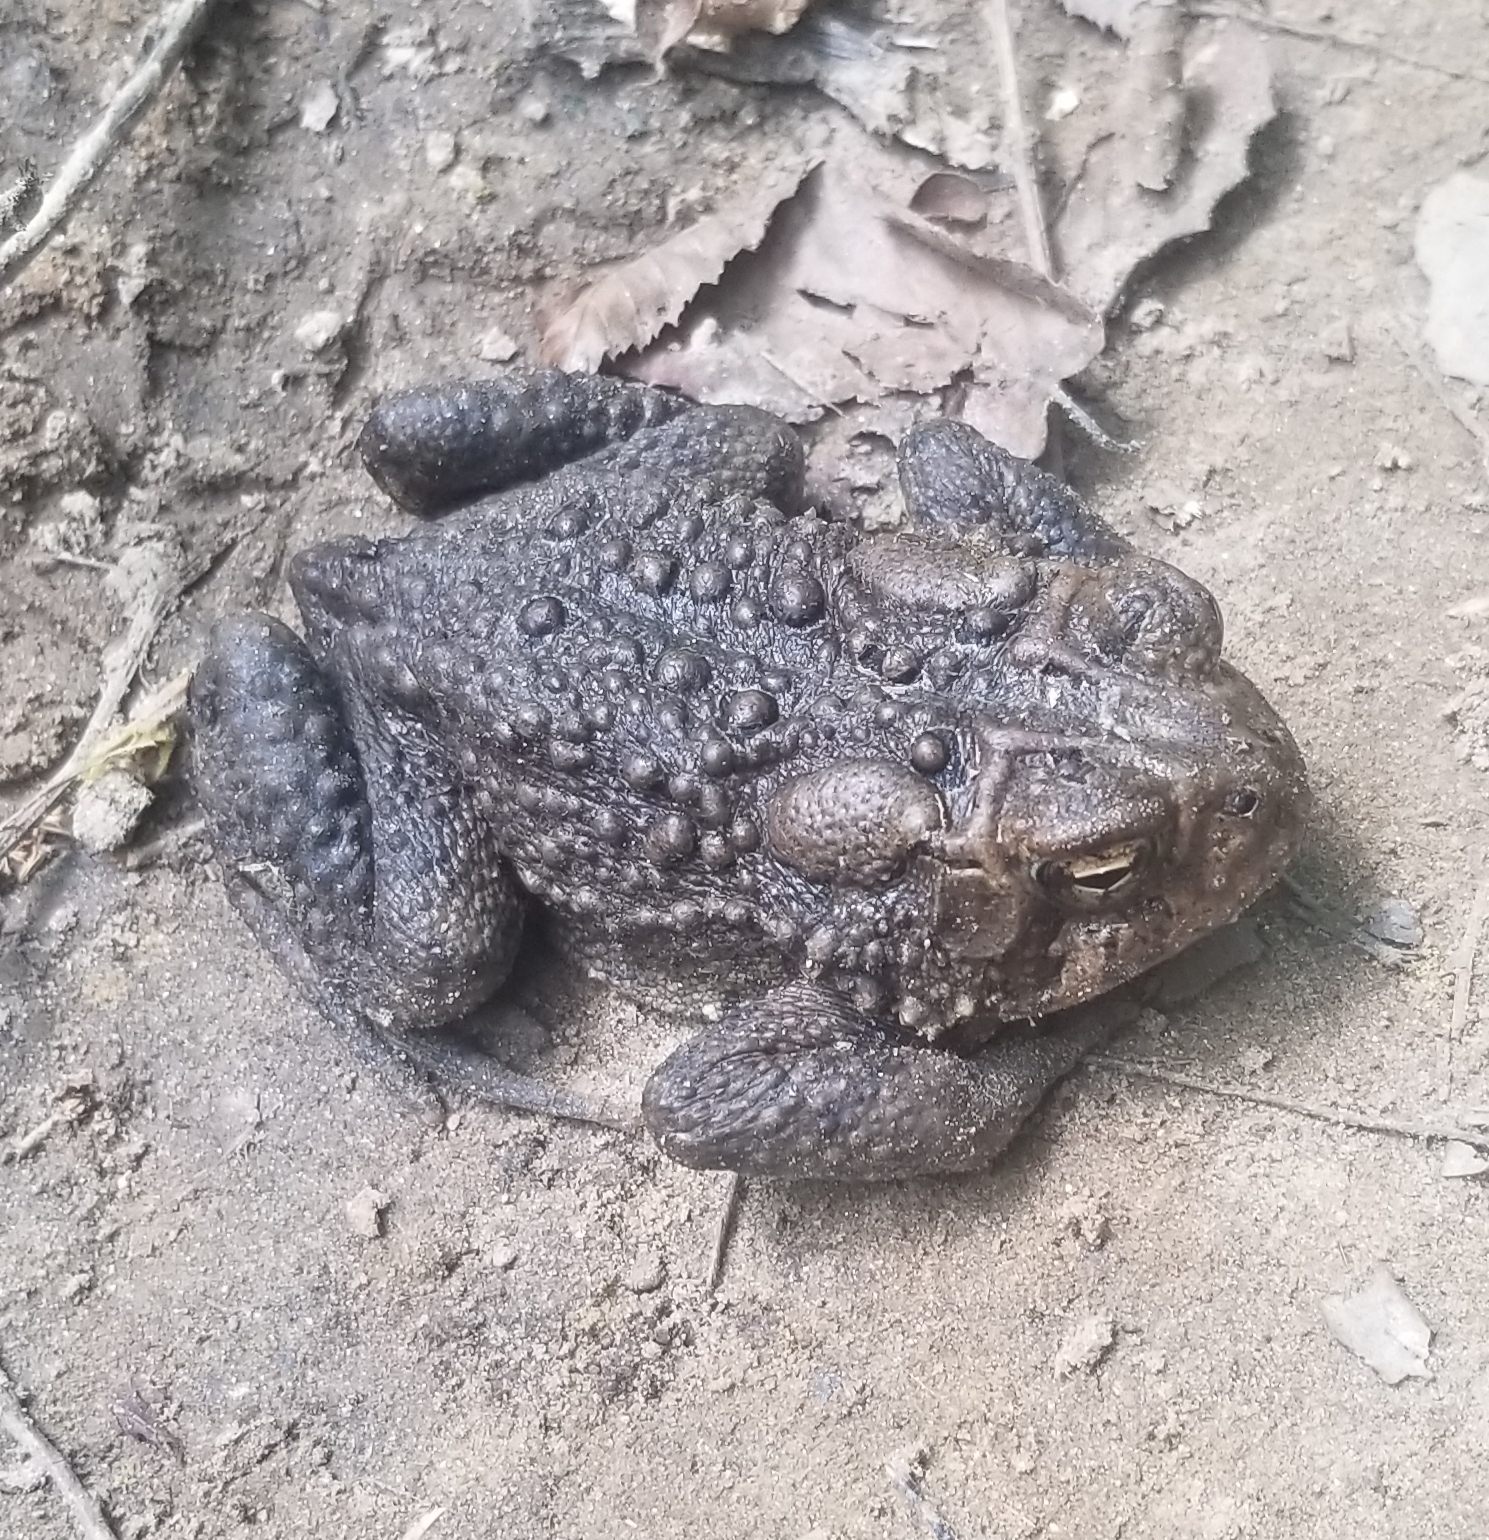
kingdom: Animalia
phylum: Chordata
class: Amphibia
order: Anura
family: Bufonidae
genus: Anaxyrus
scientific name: Anaxyrus americanus
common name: American toad
